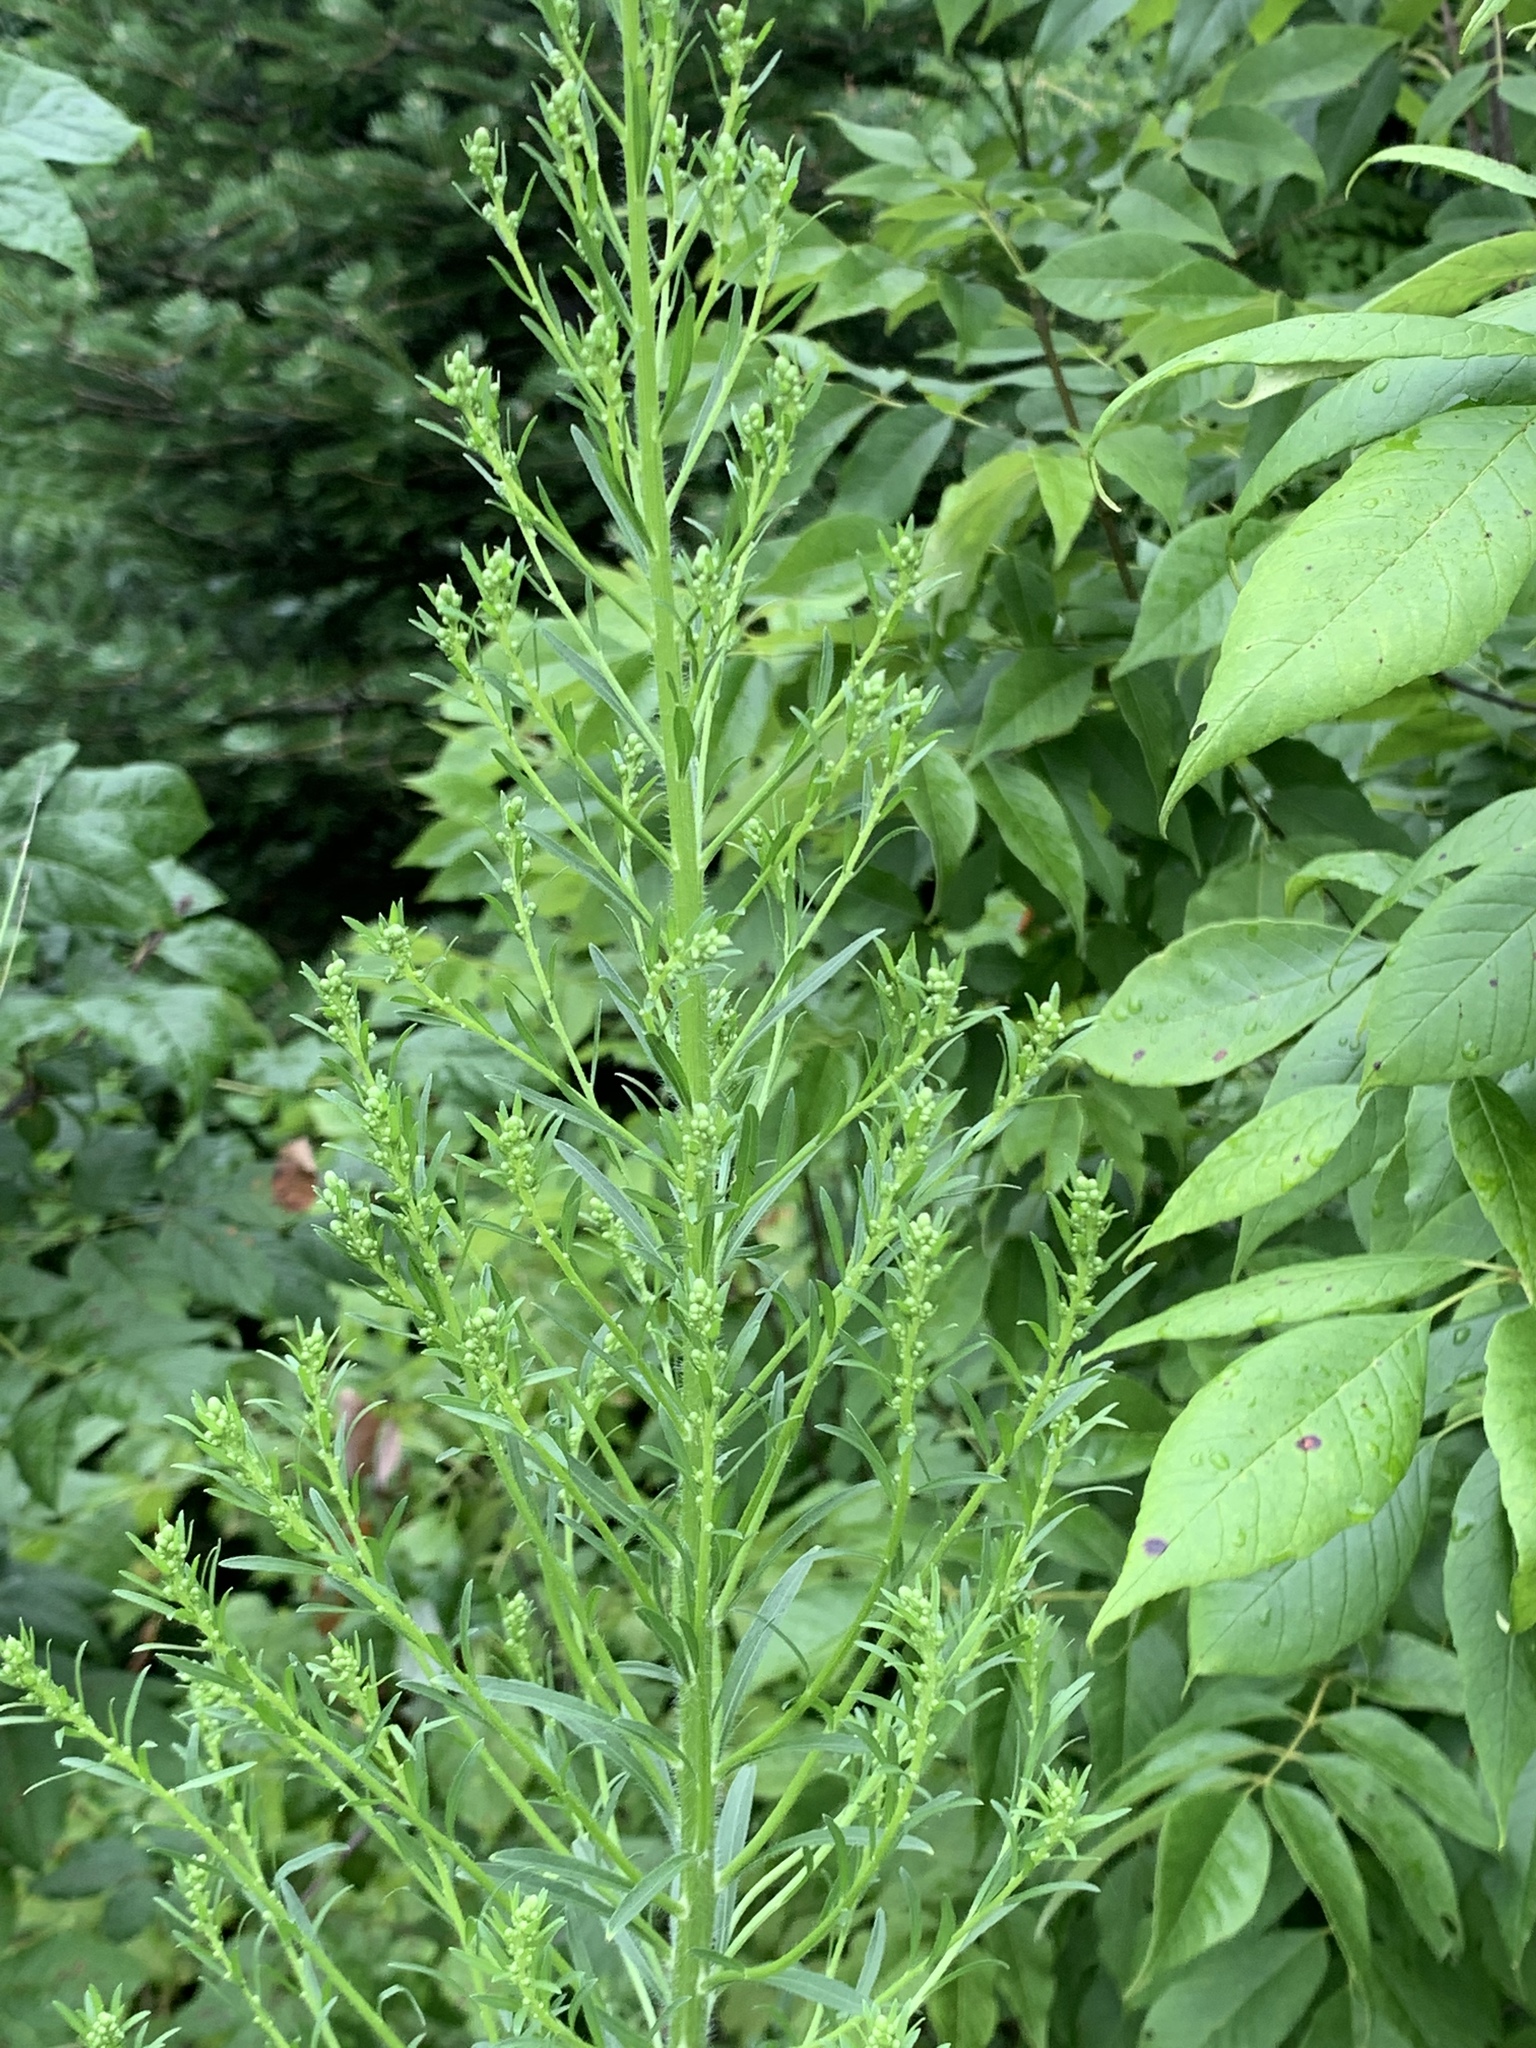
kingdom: Plantae
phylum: Tracheophyta
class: Magnoliopsida
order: Asterales
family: Asteraceae
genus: Erigeron
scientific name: Erigeron canadensis
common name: Canadian fleabane
